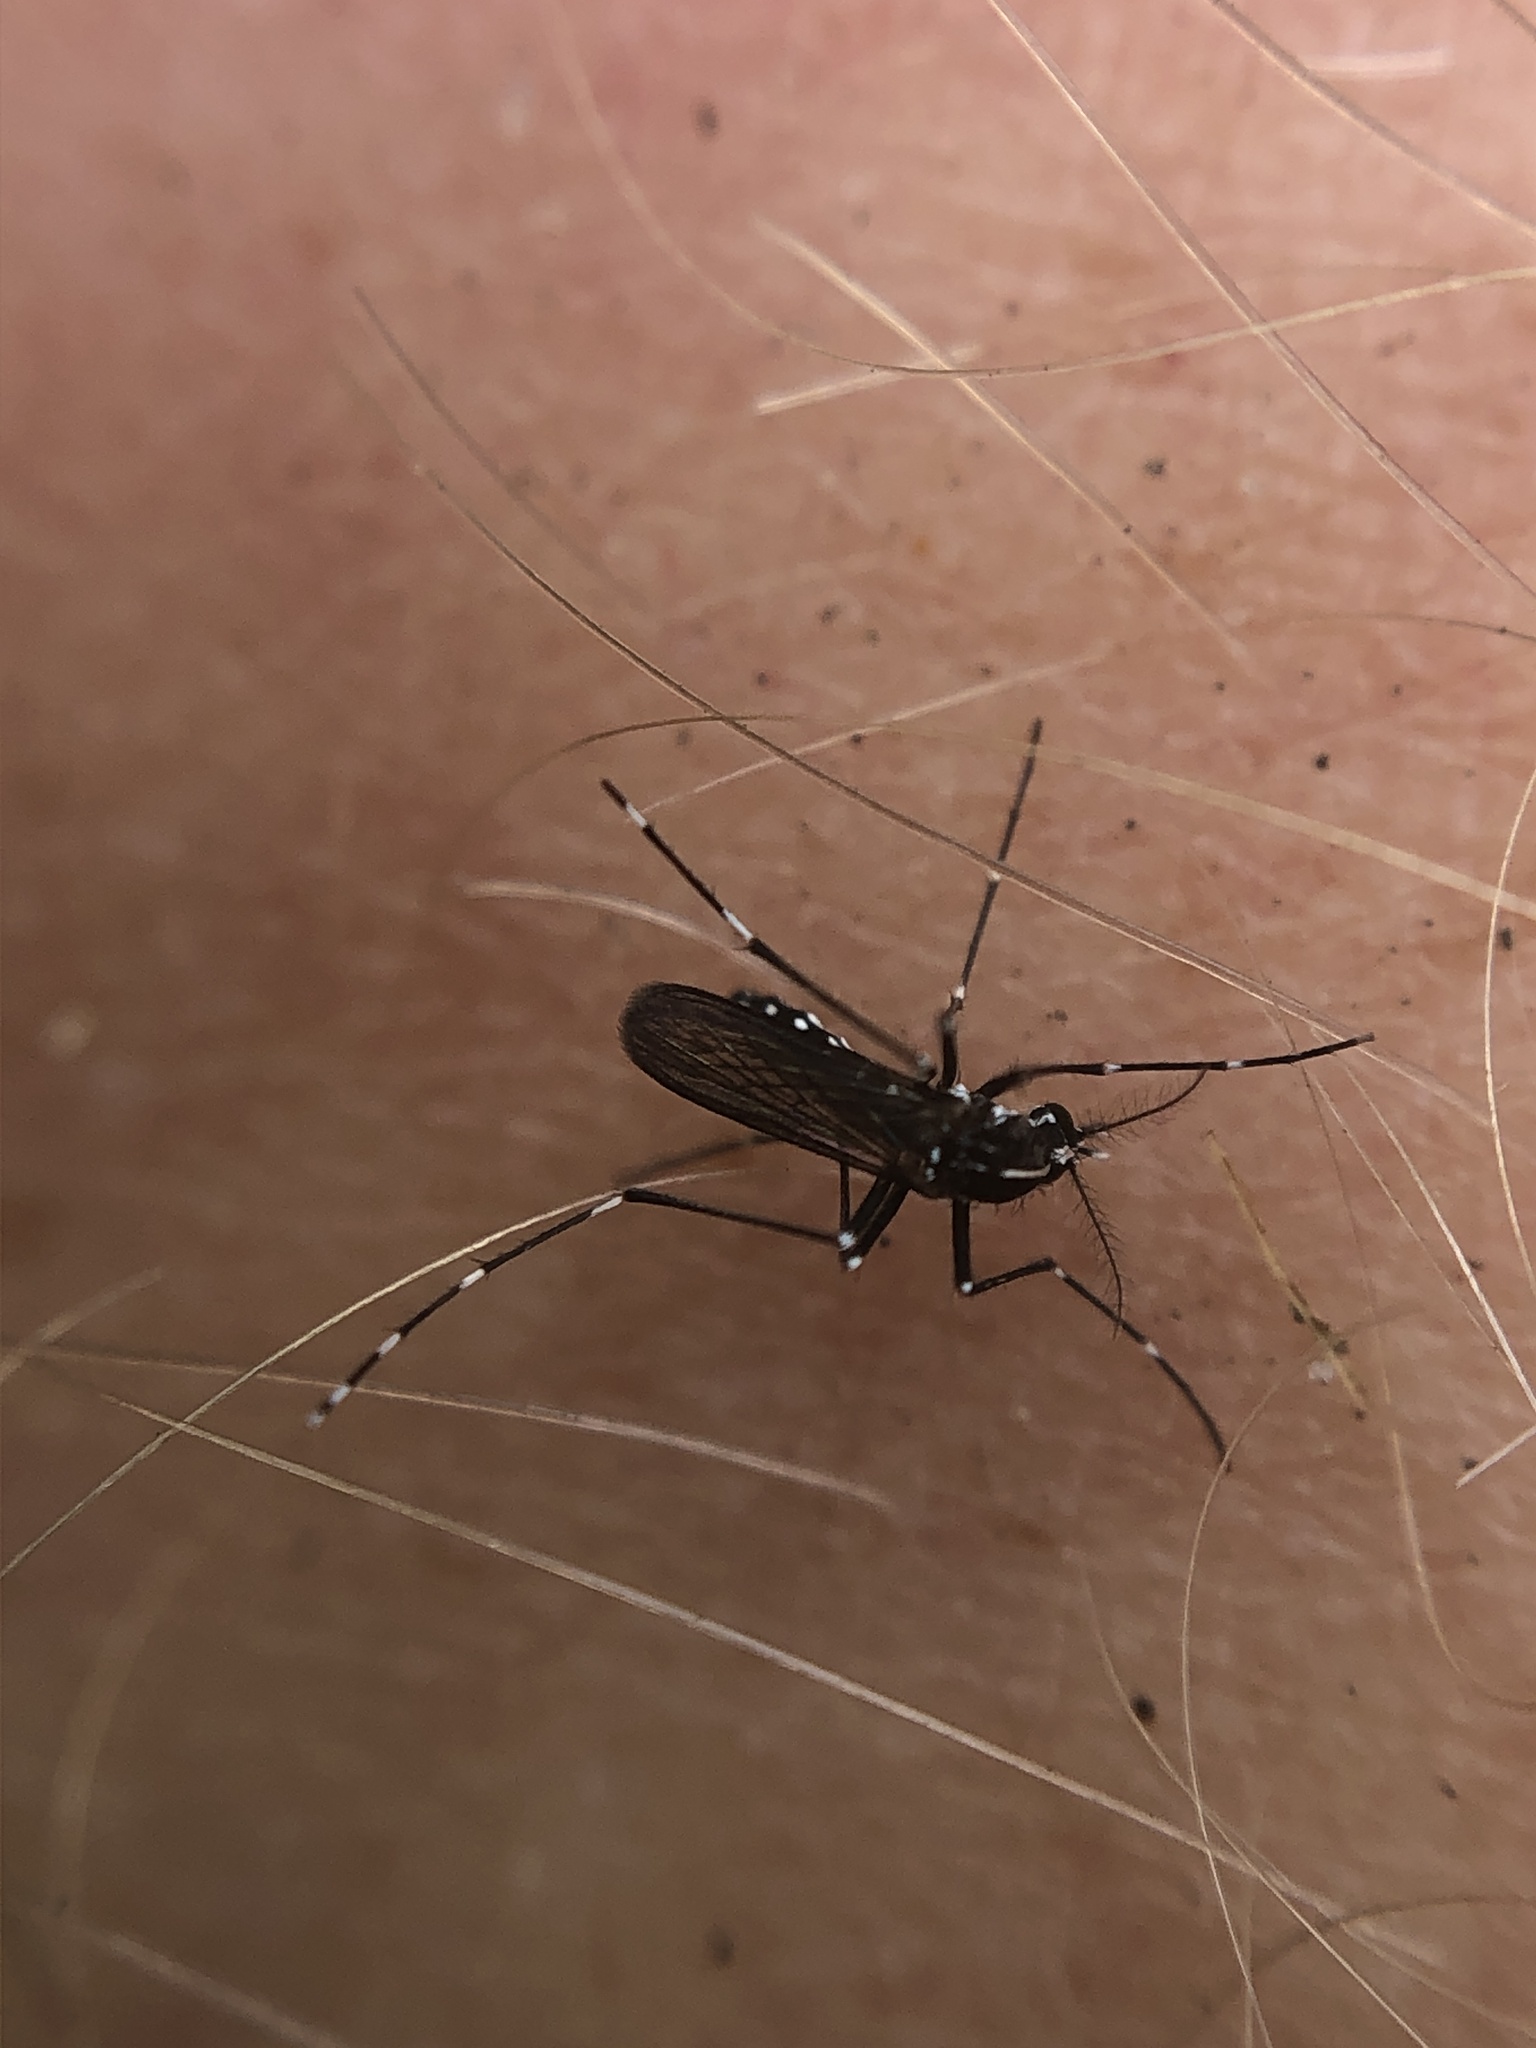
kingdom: Animalia
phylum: Arthropoda
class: Insecta
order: Diptera
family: Culicidae
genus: Aedes
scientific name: Aedes albopictus
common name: Tiger mosquito
